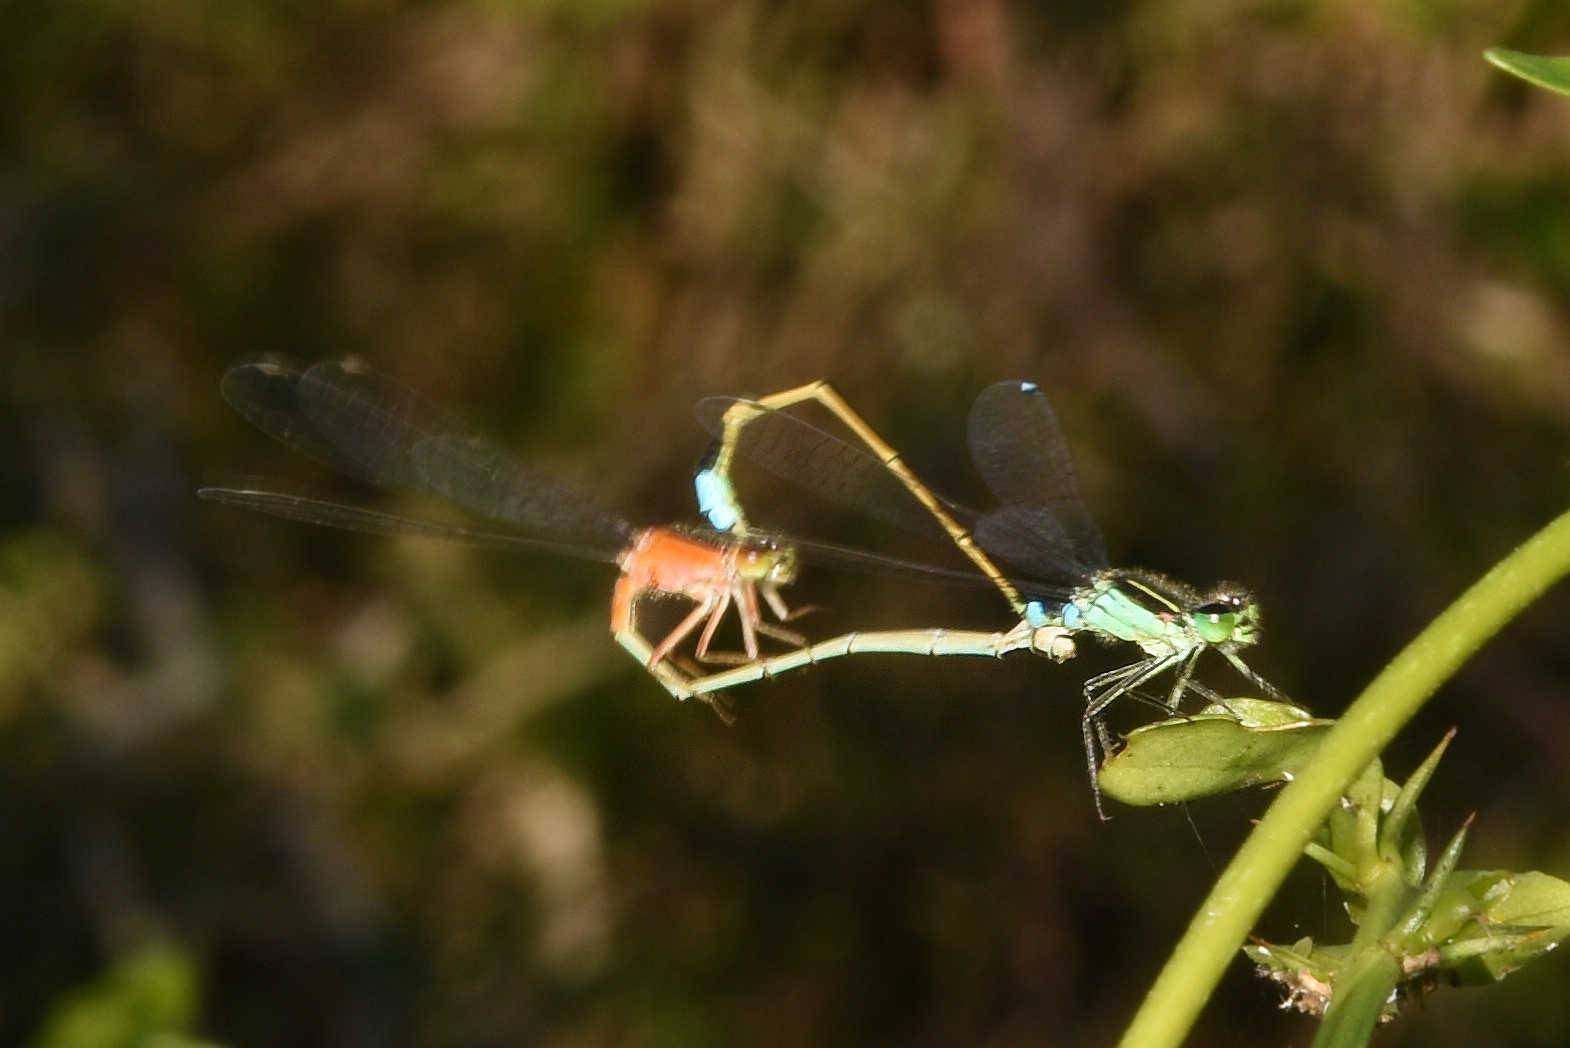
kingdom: Animalia
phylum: Arthropoda
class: Insecta
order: Odonata
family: Coenagrionidae
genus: Ischnura
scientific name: Ischnura senegalensis
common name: Tropical bluetail
